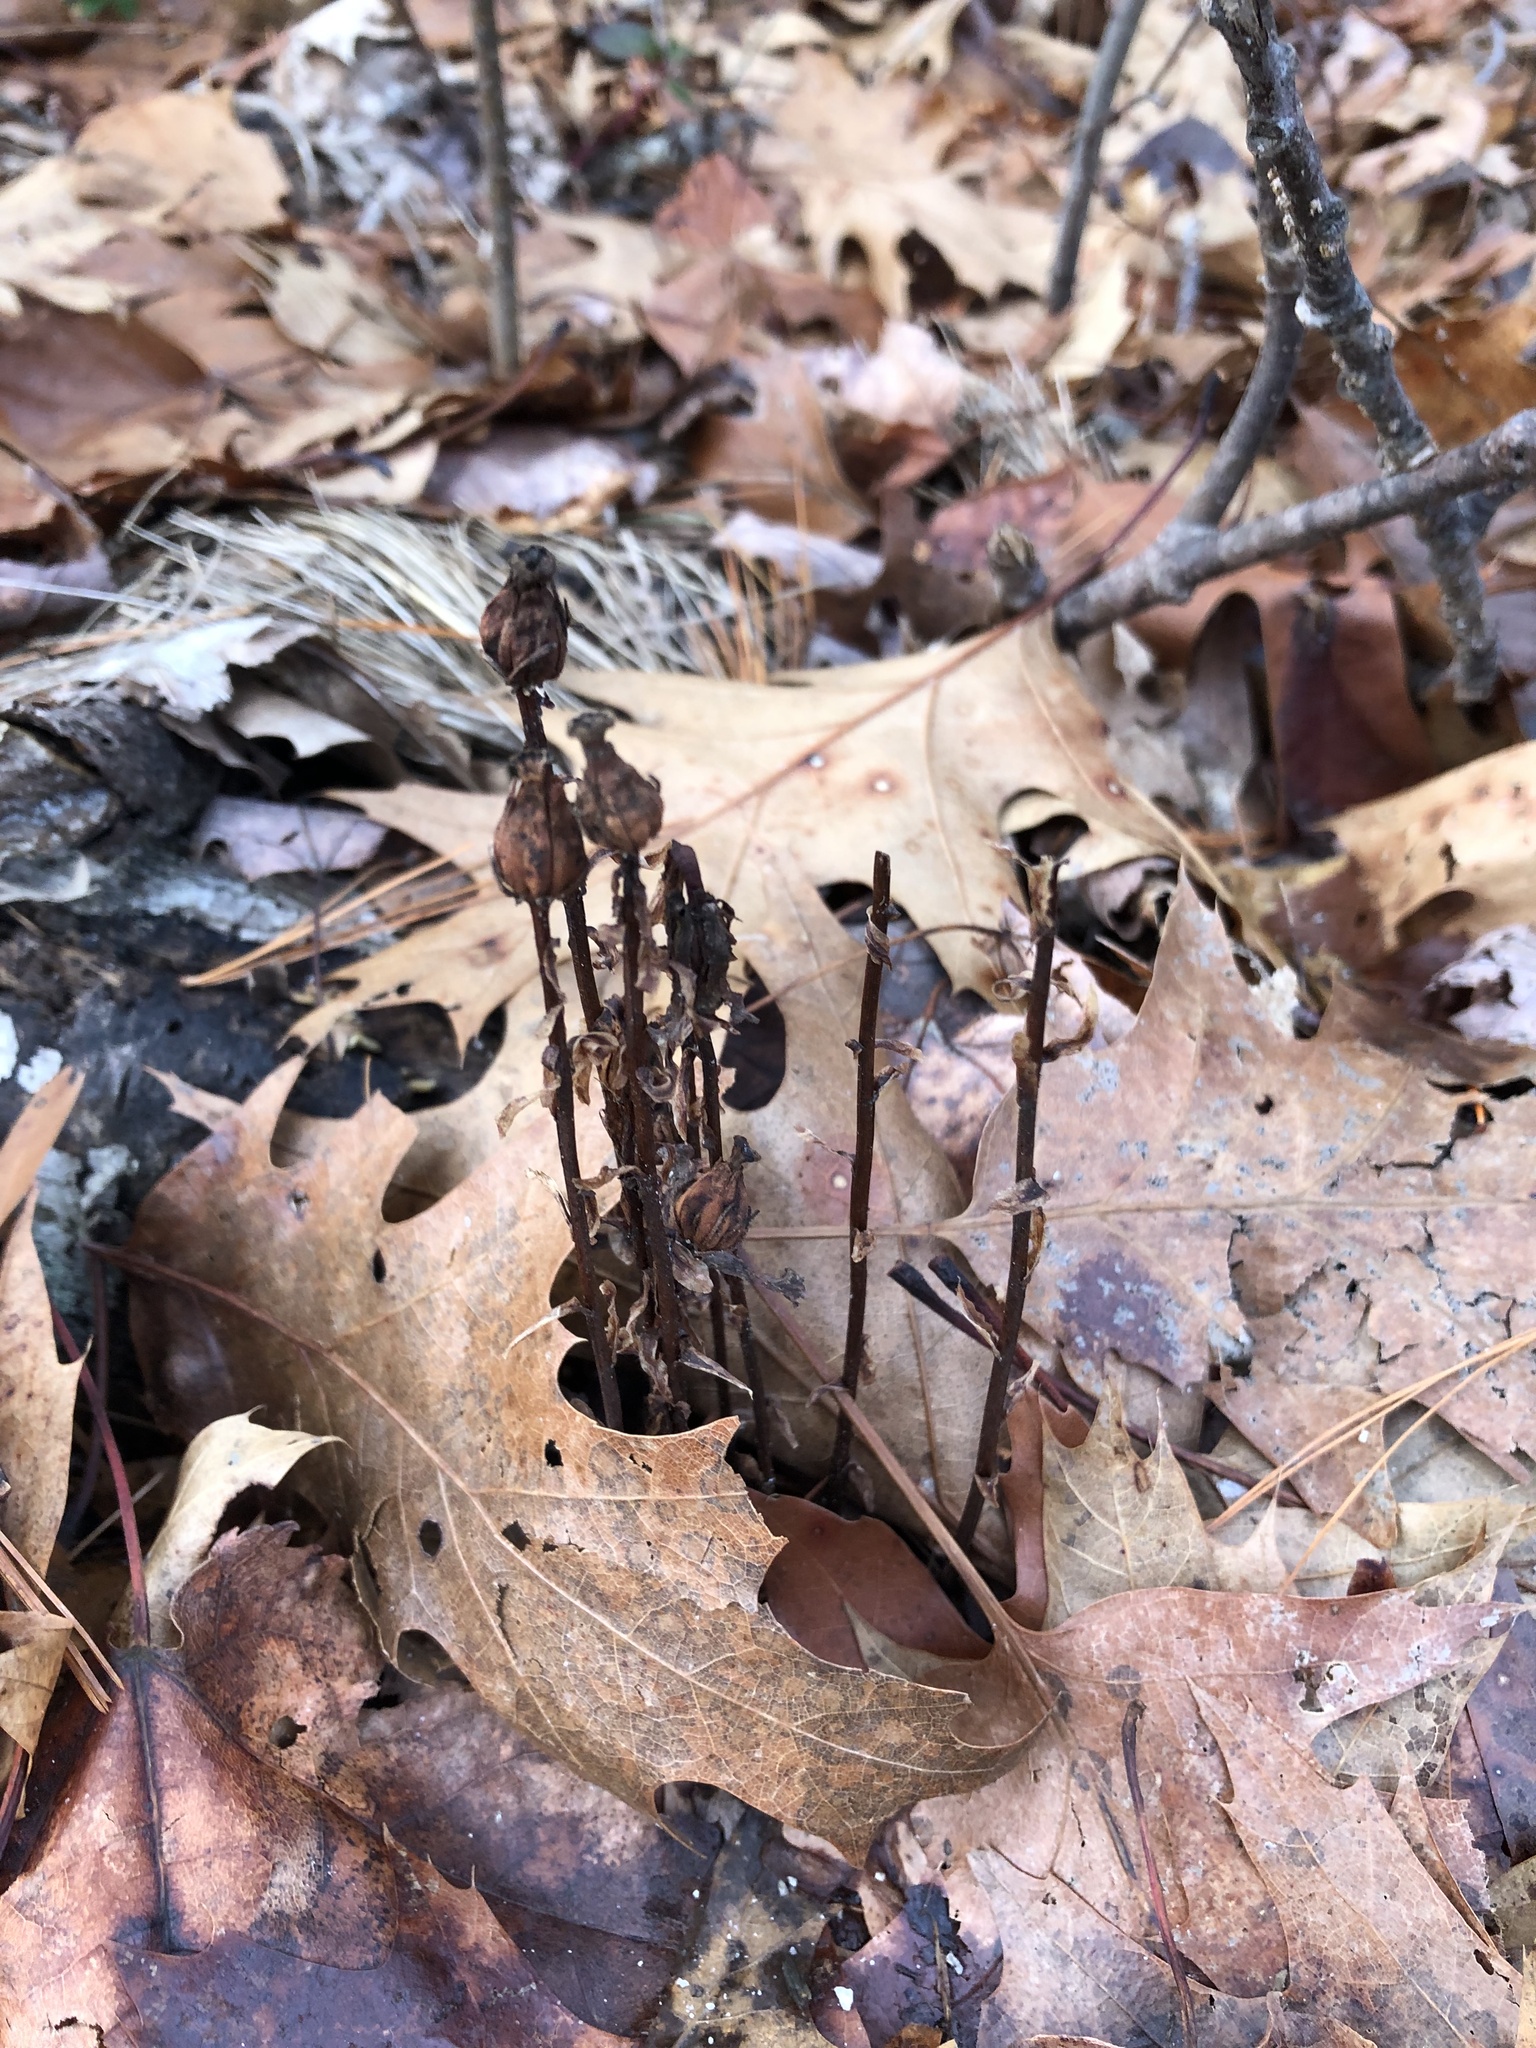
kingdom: Plantae
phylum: Tracheophyta
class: Magnoliopsida
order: Ericales
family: Ericaceae
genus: Monotropa
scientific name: Monotropa uniflora
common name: Convulsion root
